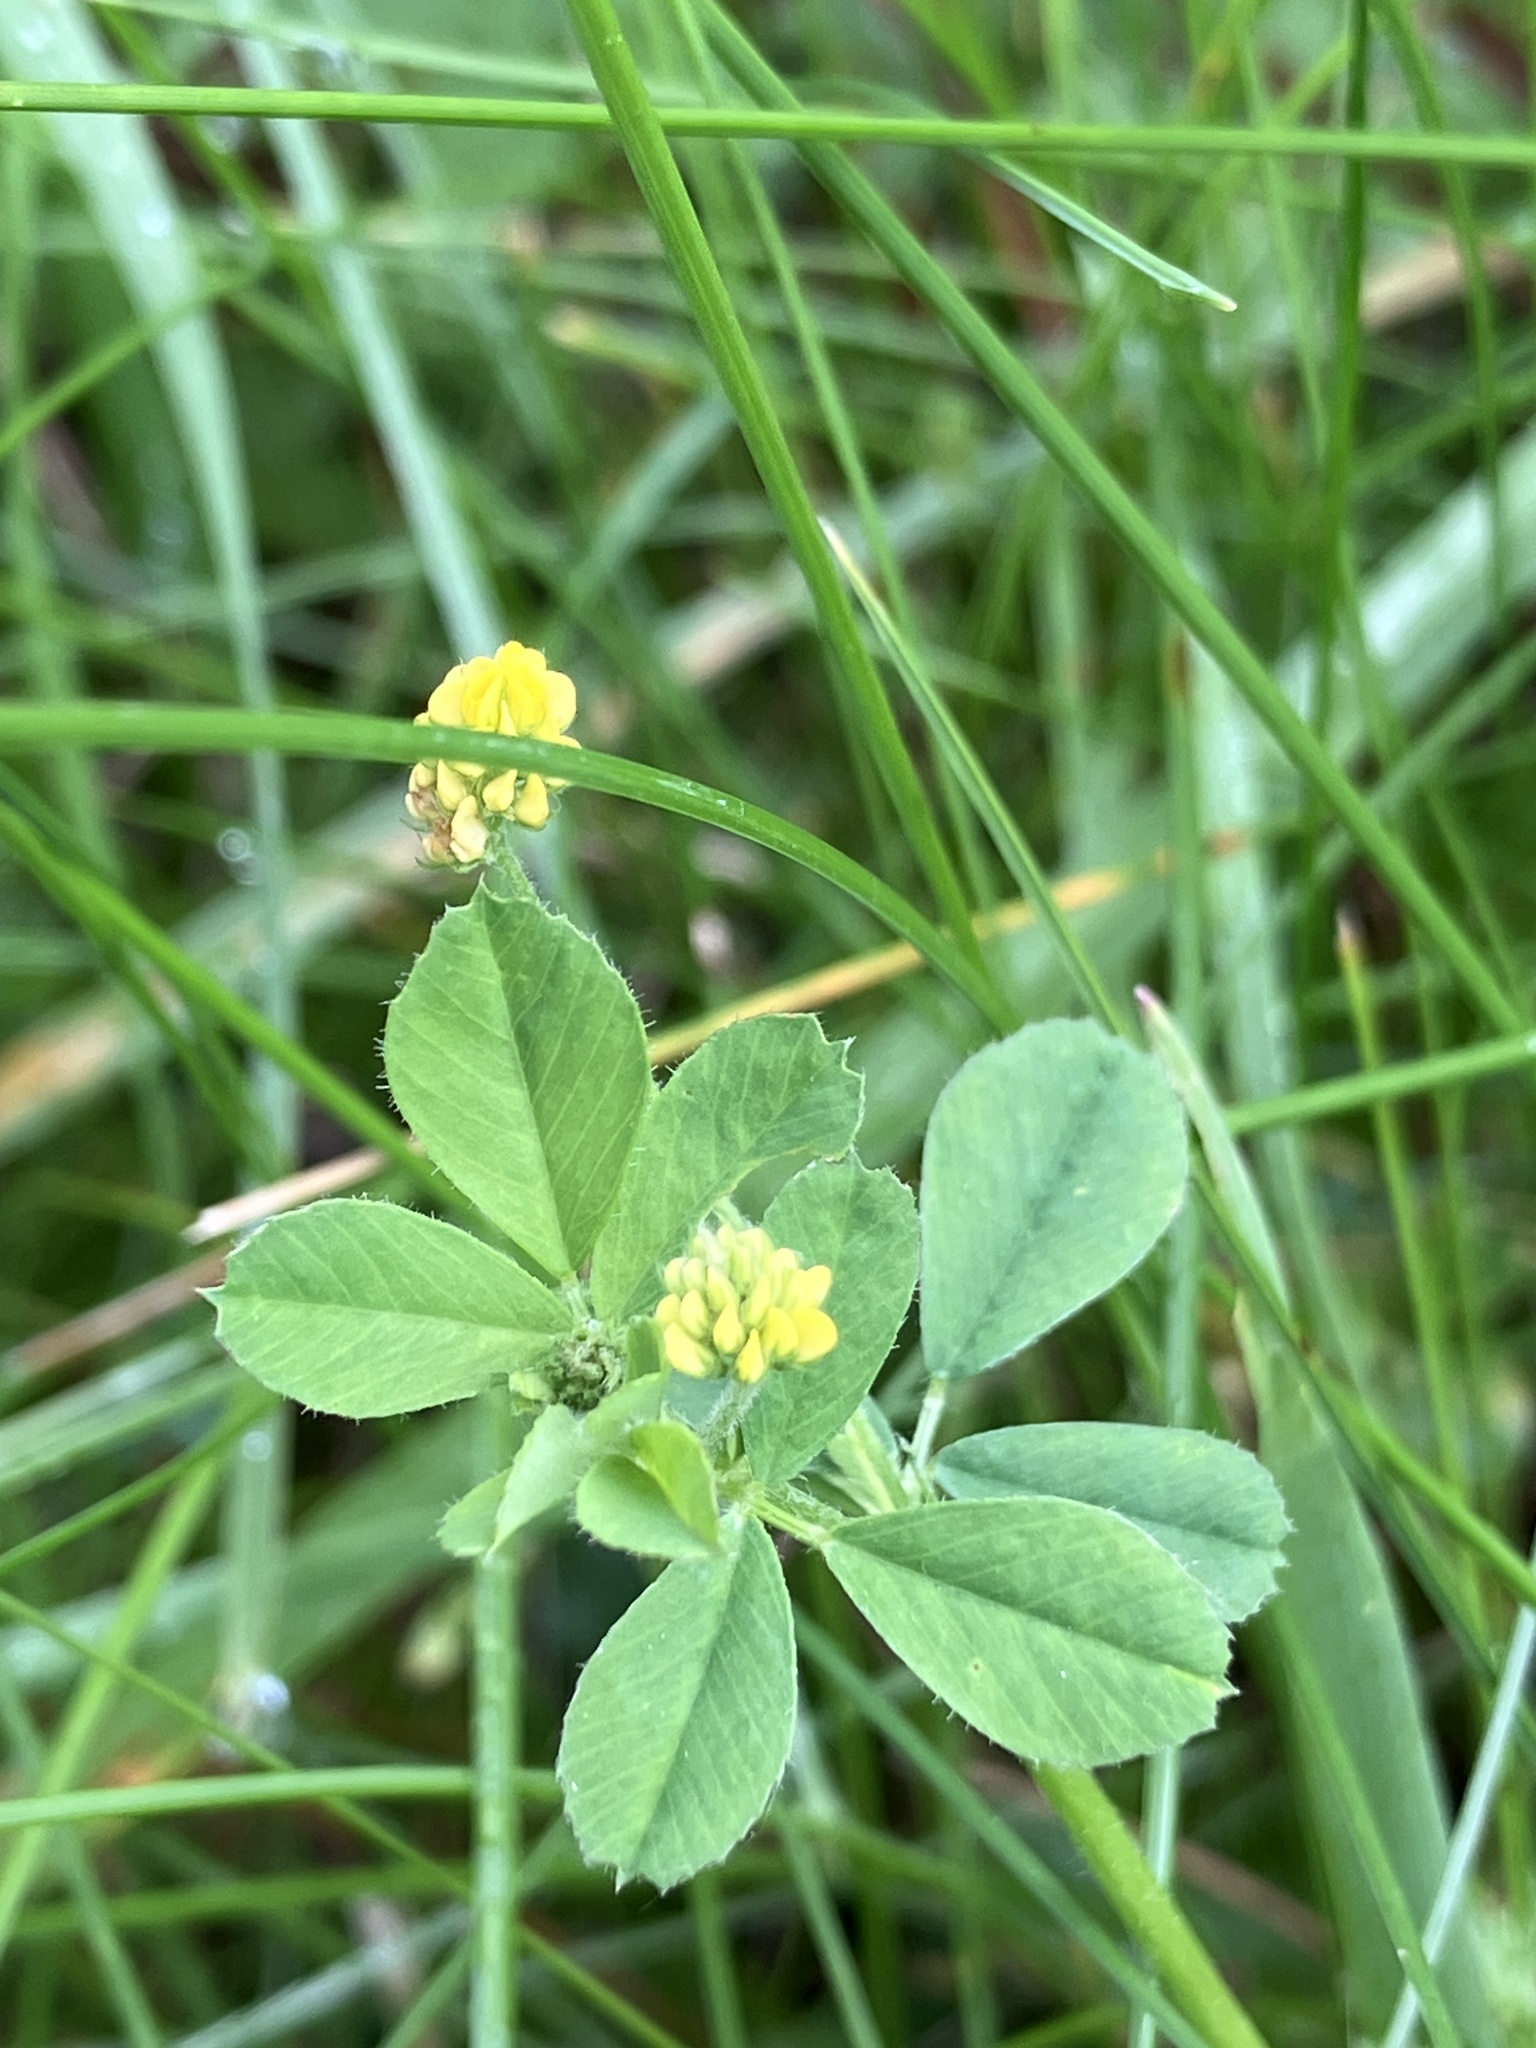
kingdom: Plantae
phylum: Tracheophyta
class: Magnoliopsida
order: Fabales
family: Fabaceae
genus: Medicago
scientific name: Medicago lupulina
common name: Black medick
